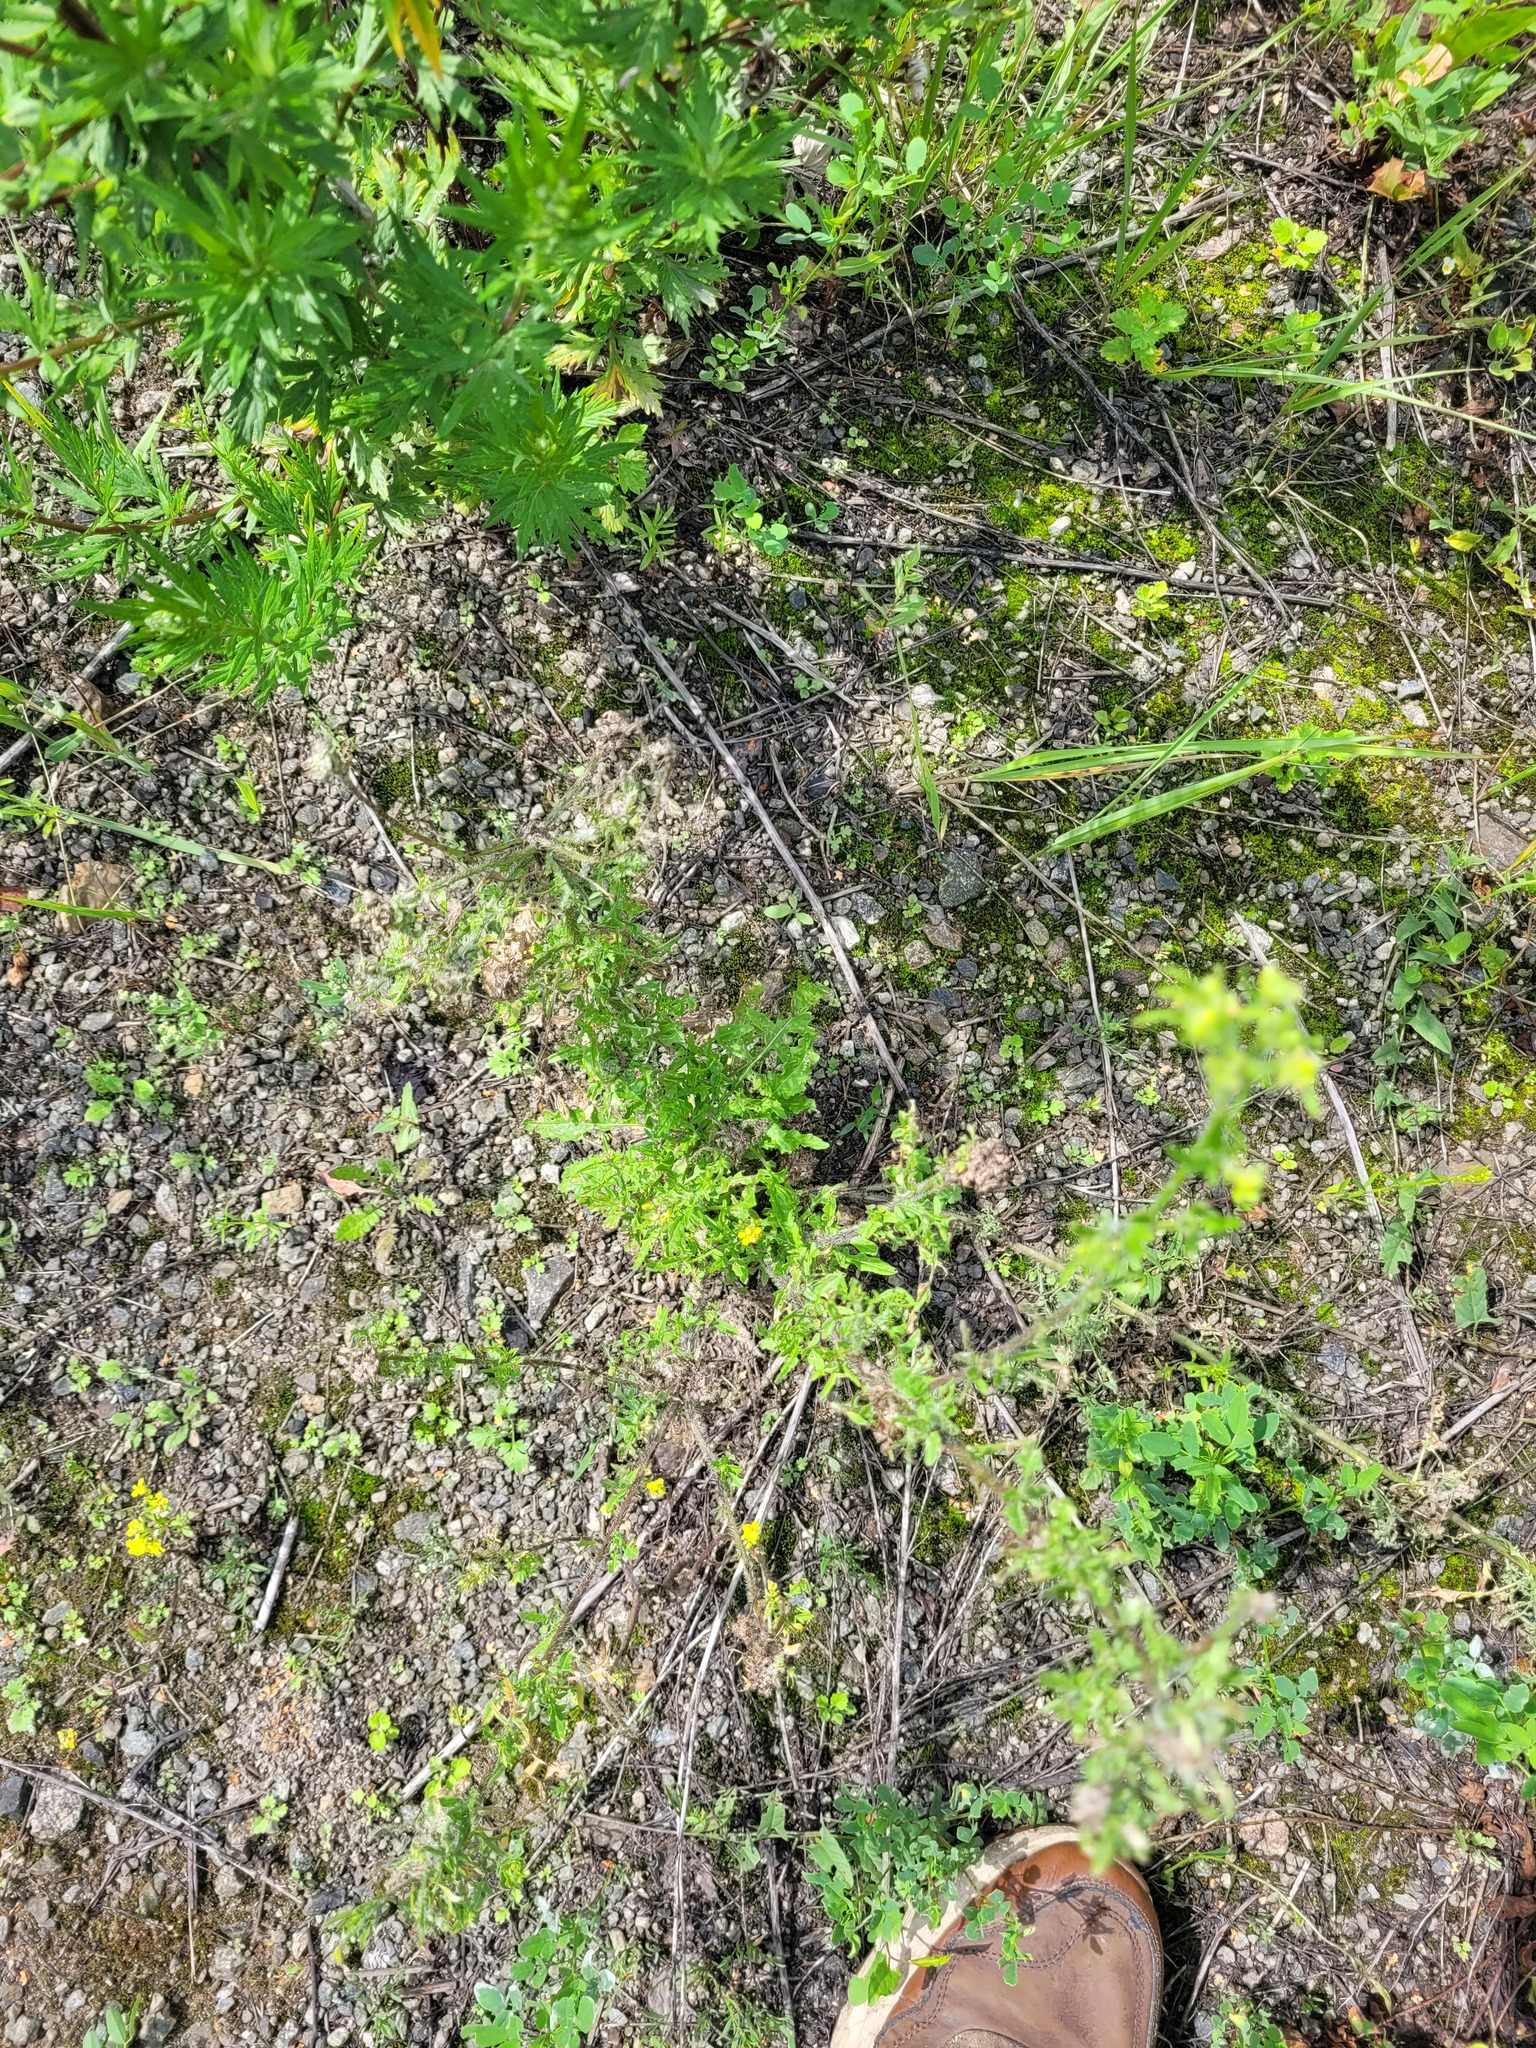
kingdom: Plantae
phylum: Tracheophyta
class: Magnoliopsida
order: Brassicales
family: Brassicaceae
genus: Sisymbrium
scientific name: Sisymbrium loeselii
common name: False london-rocket
